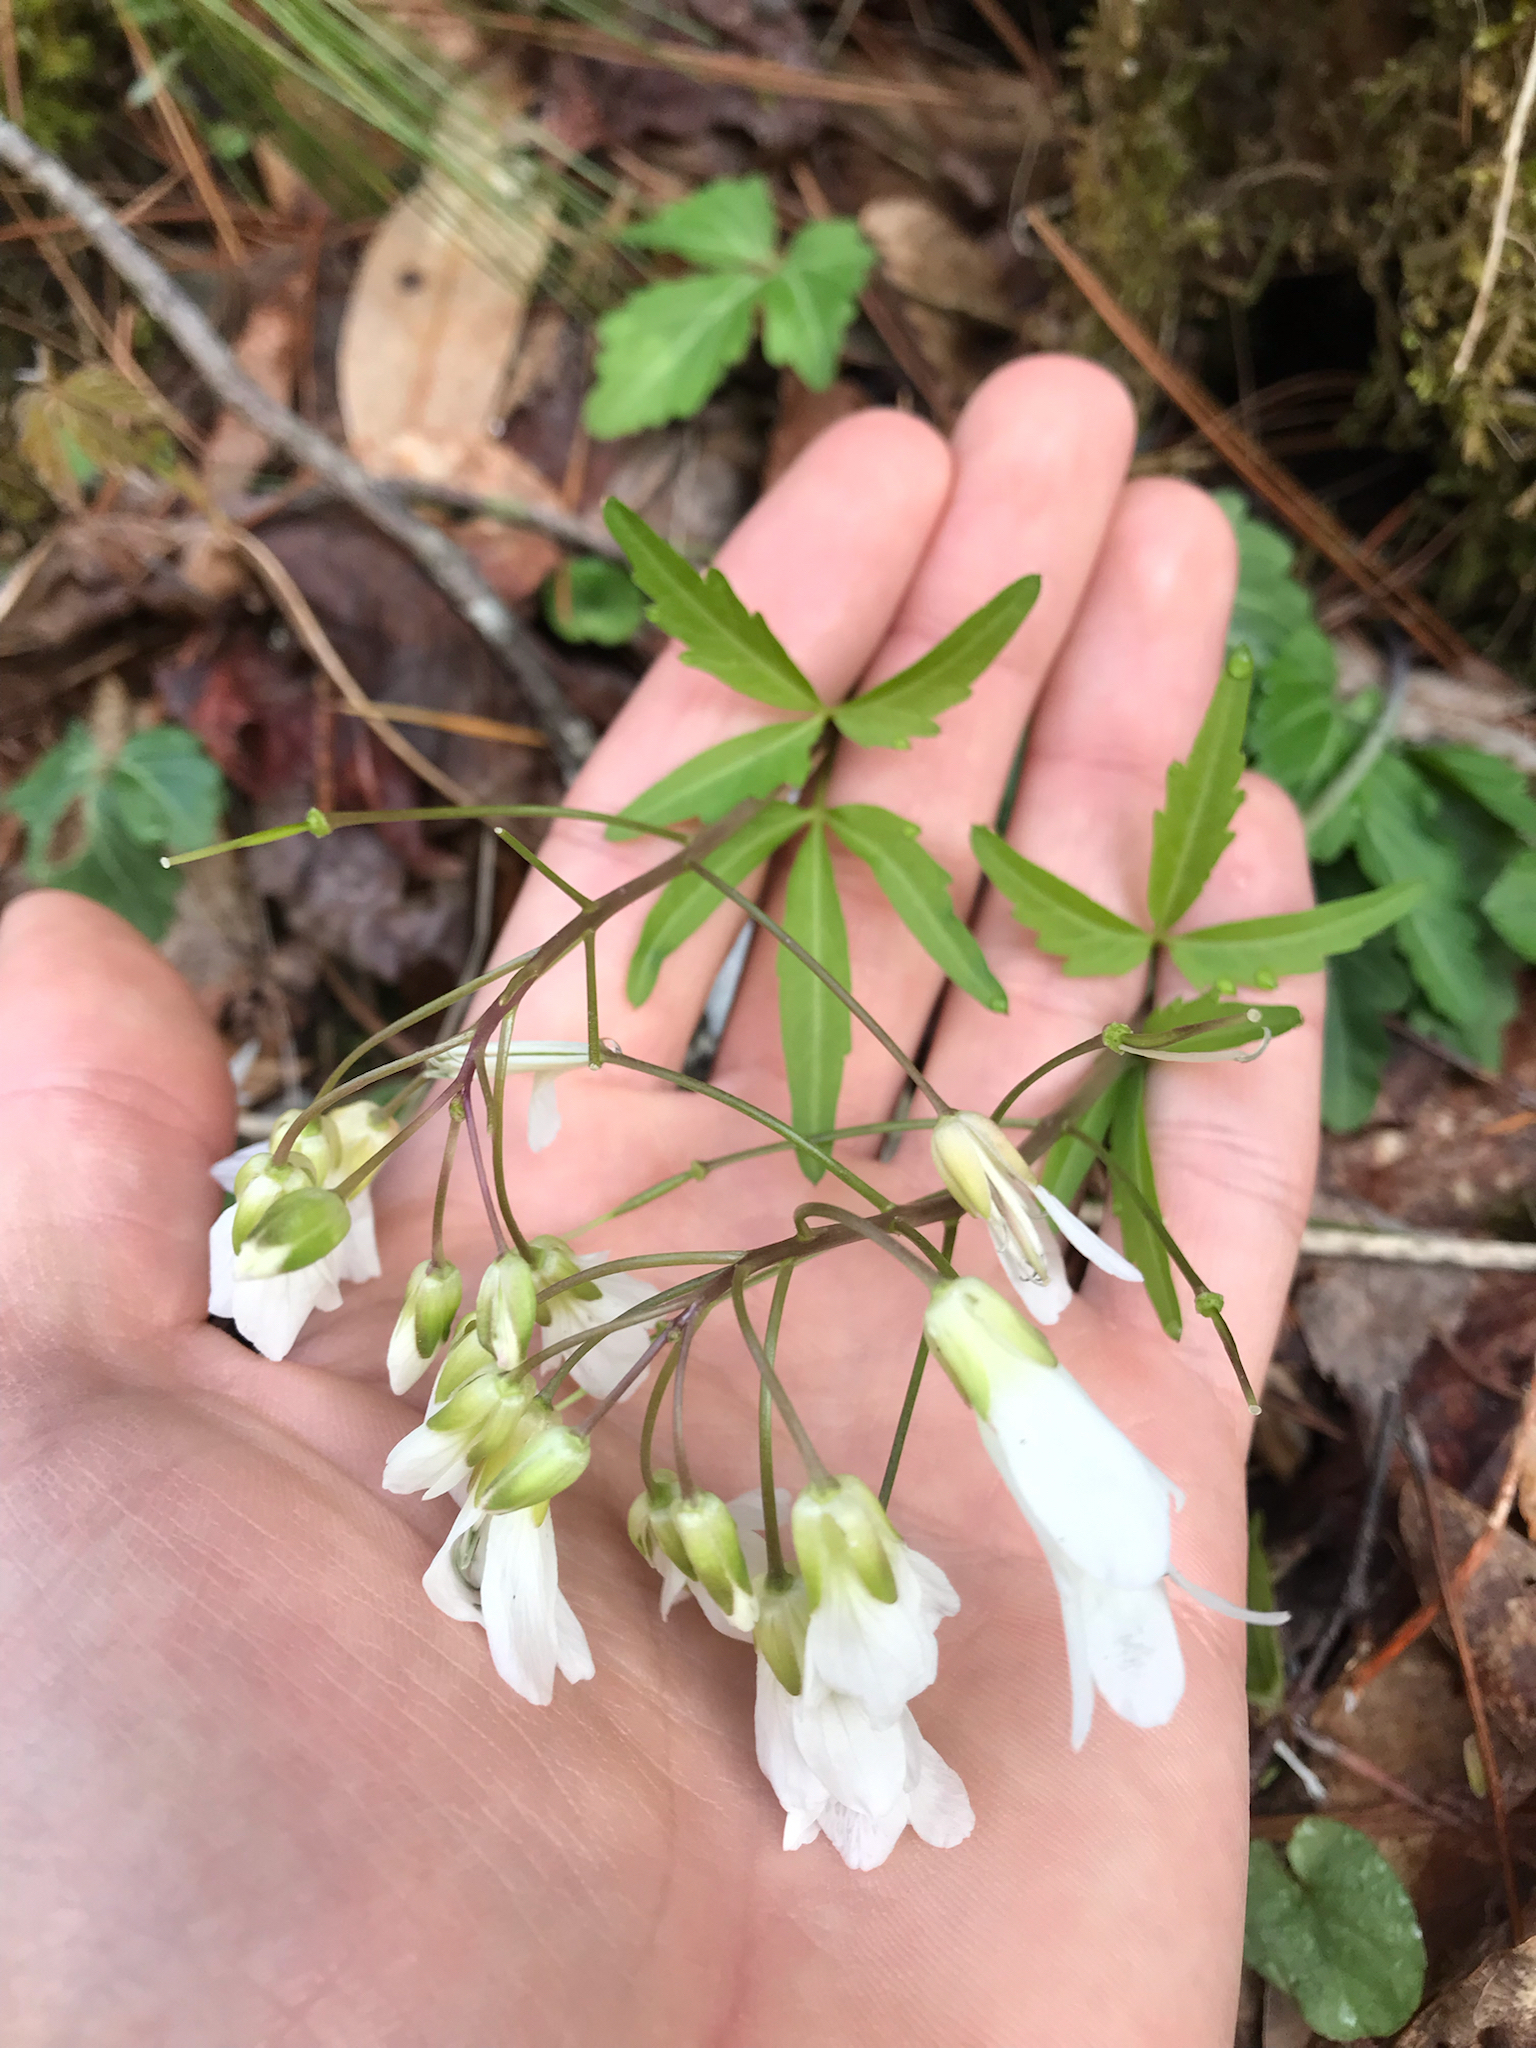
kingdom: Plantae
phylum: Tracheophyta
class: Magnoliopsida
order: Brassicales
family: Brassicaceae
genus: Cardamine
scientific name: Cardamine angustata
